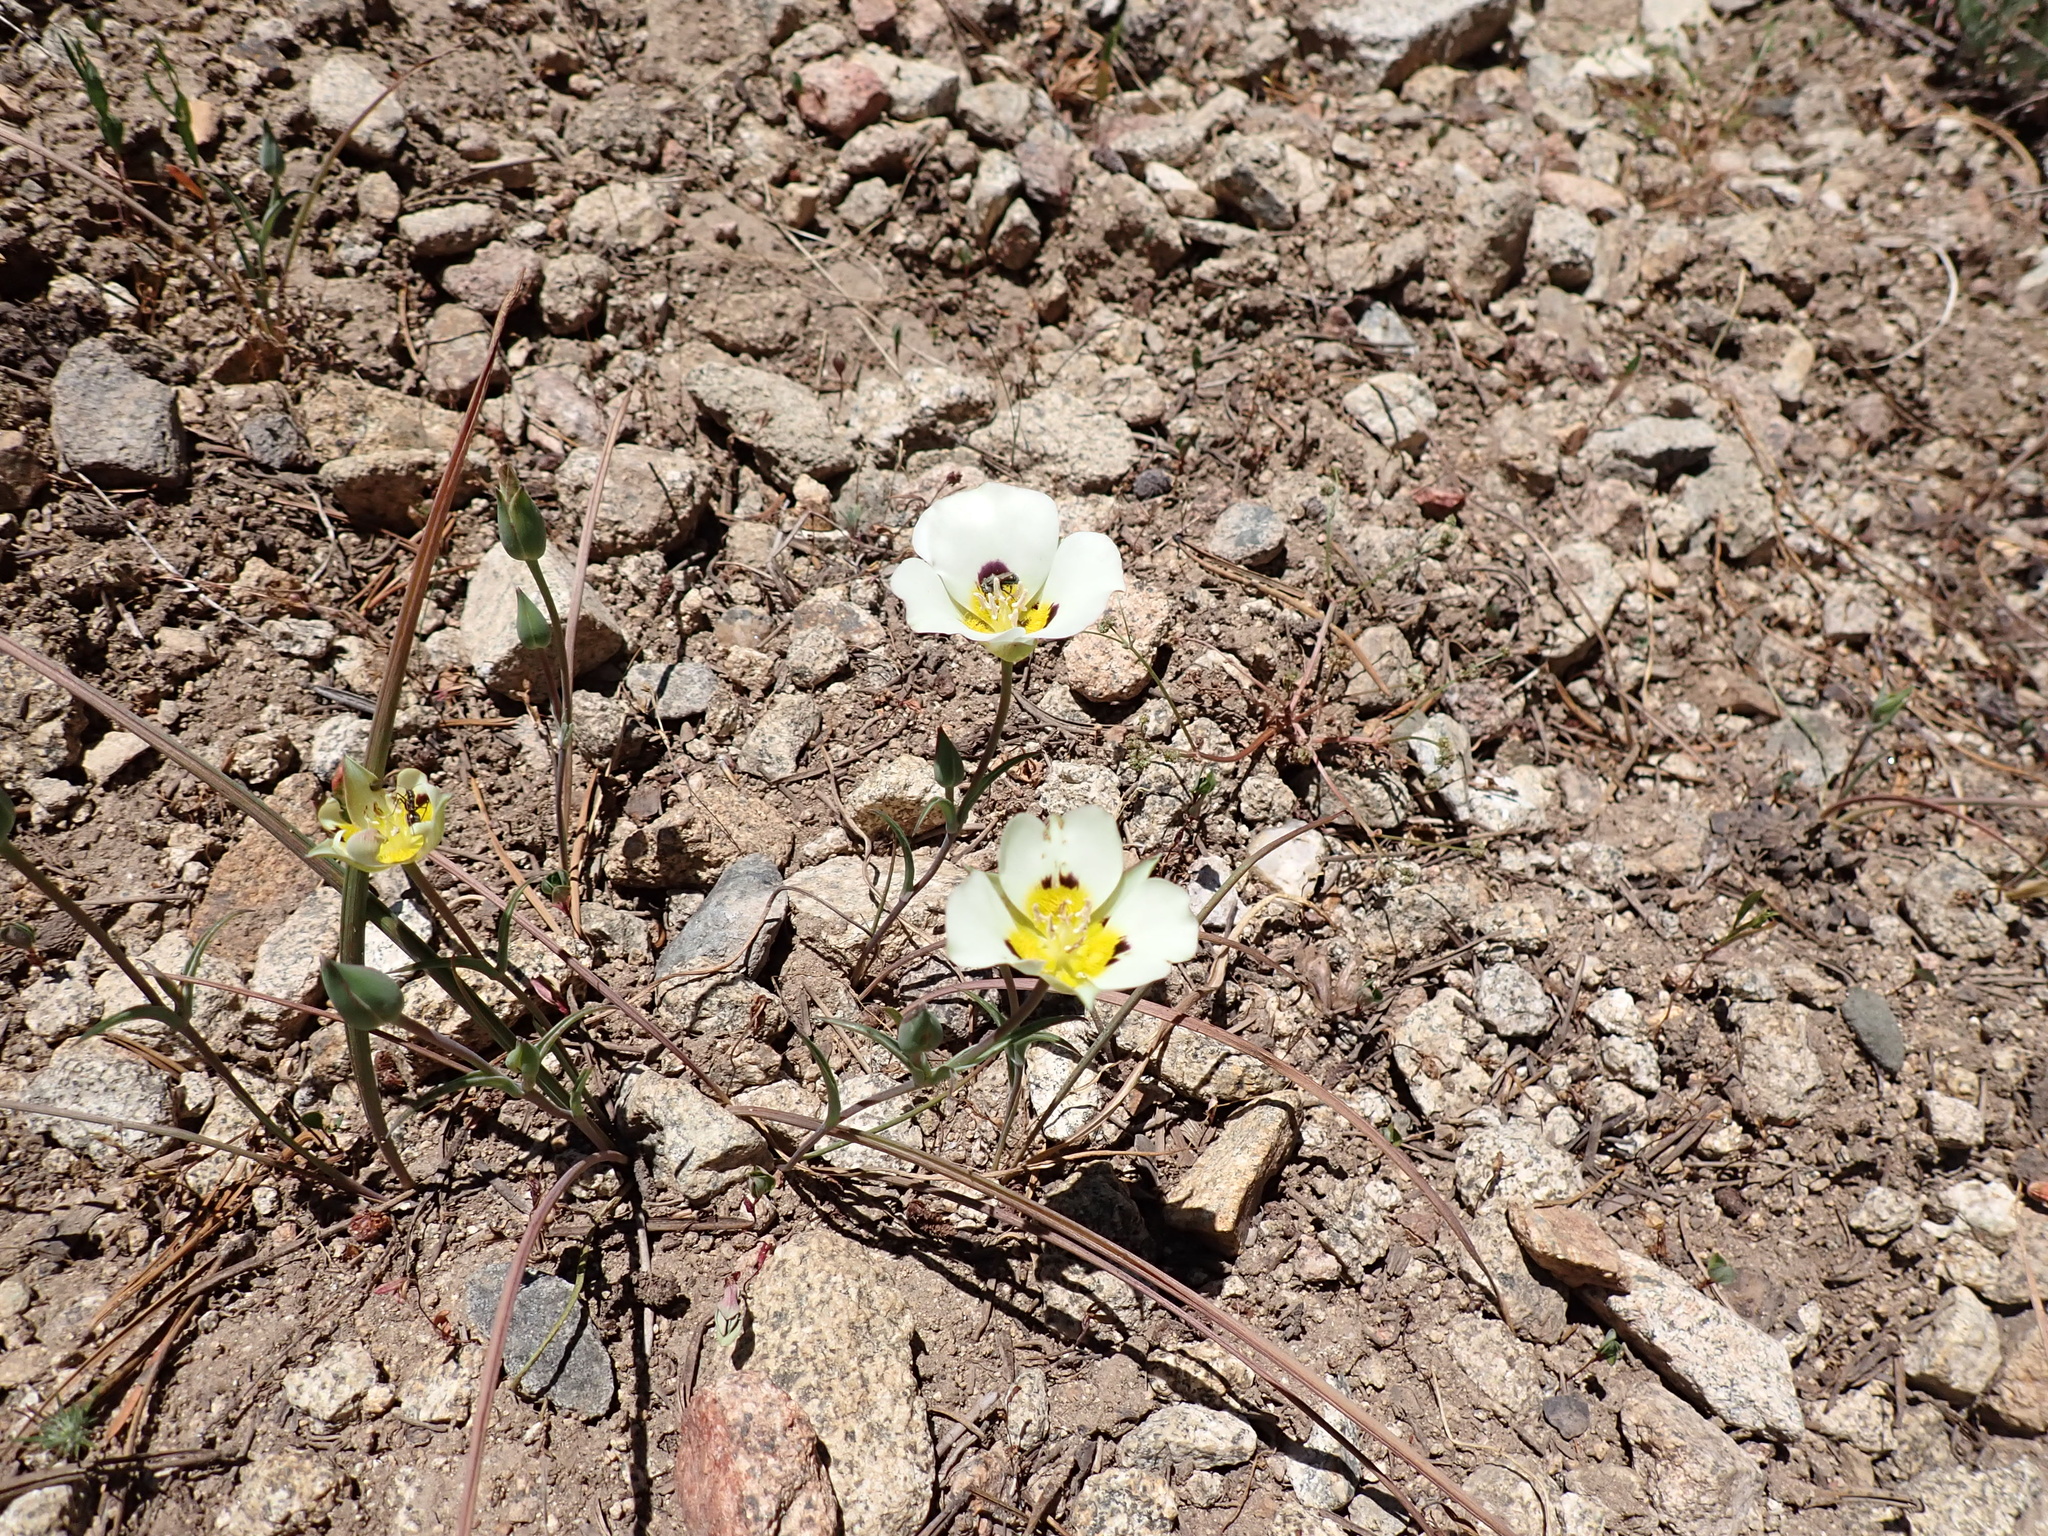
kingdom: Plantae
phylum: Tracheophyta
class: Liliopsida
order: Liliales
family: Liliaceae
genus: Calochortus
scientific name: Calochortus leichtlinii
